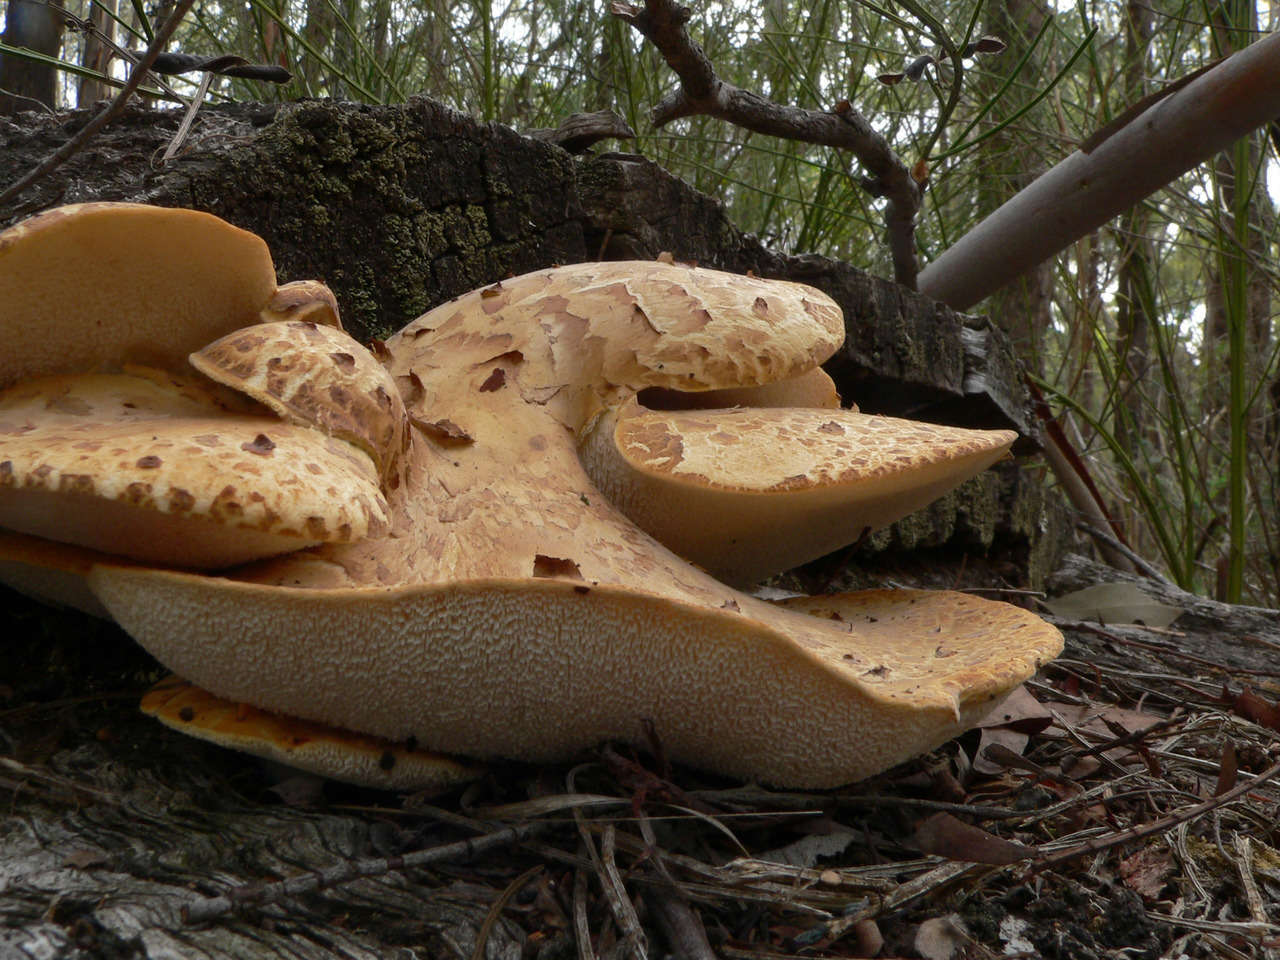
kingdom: Fungi
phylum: Basidiomycota
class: Agaricomycetes
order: Polyporales
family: Fomitopsidaceae
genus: Fomitopsis
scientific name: Fomitopsis
